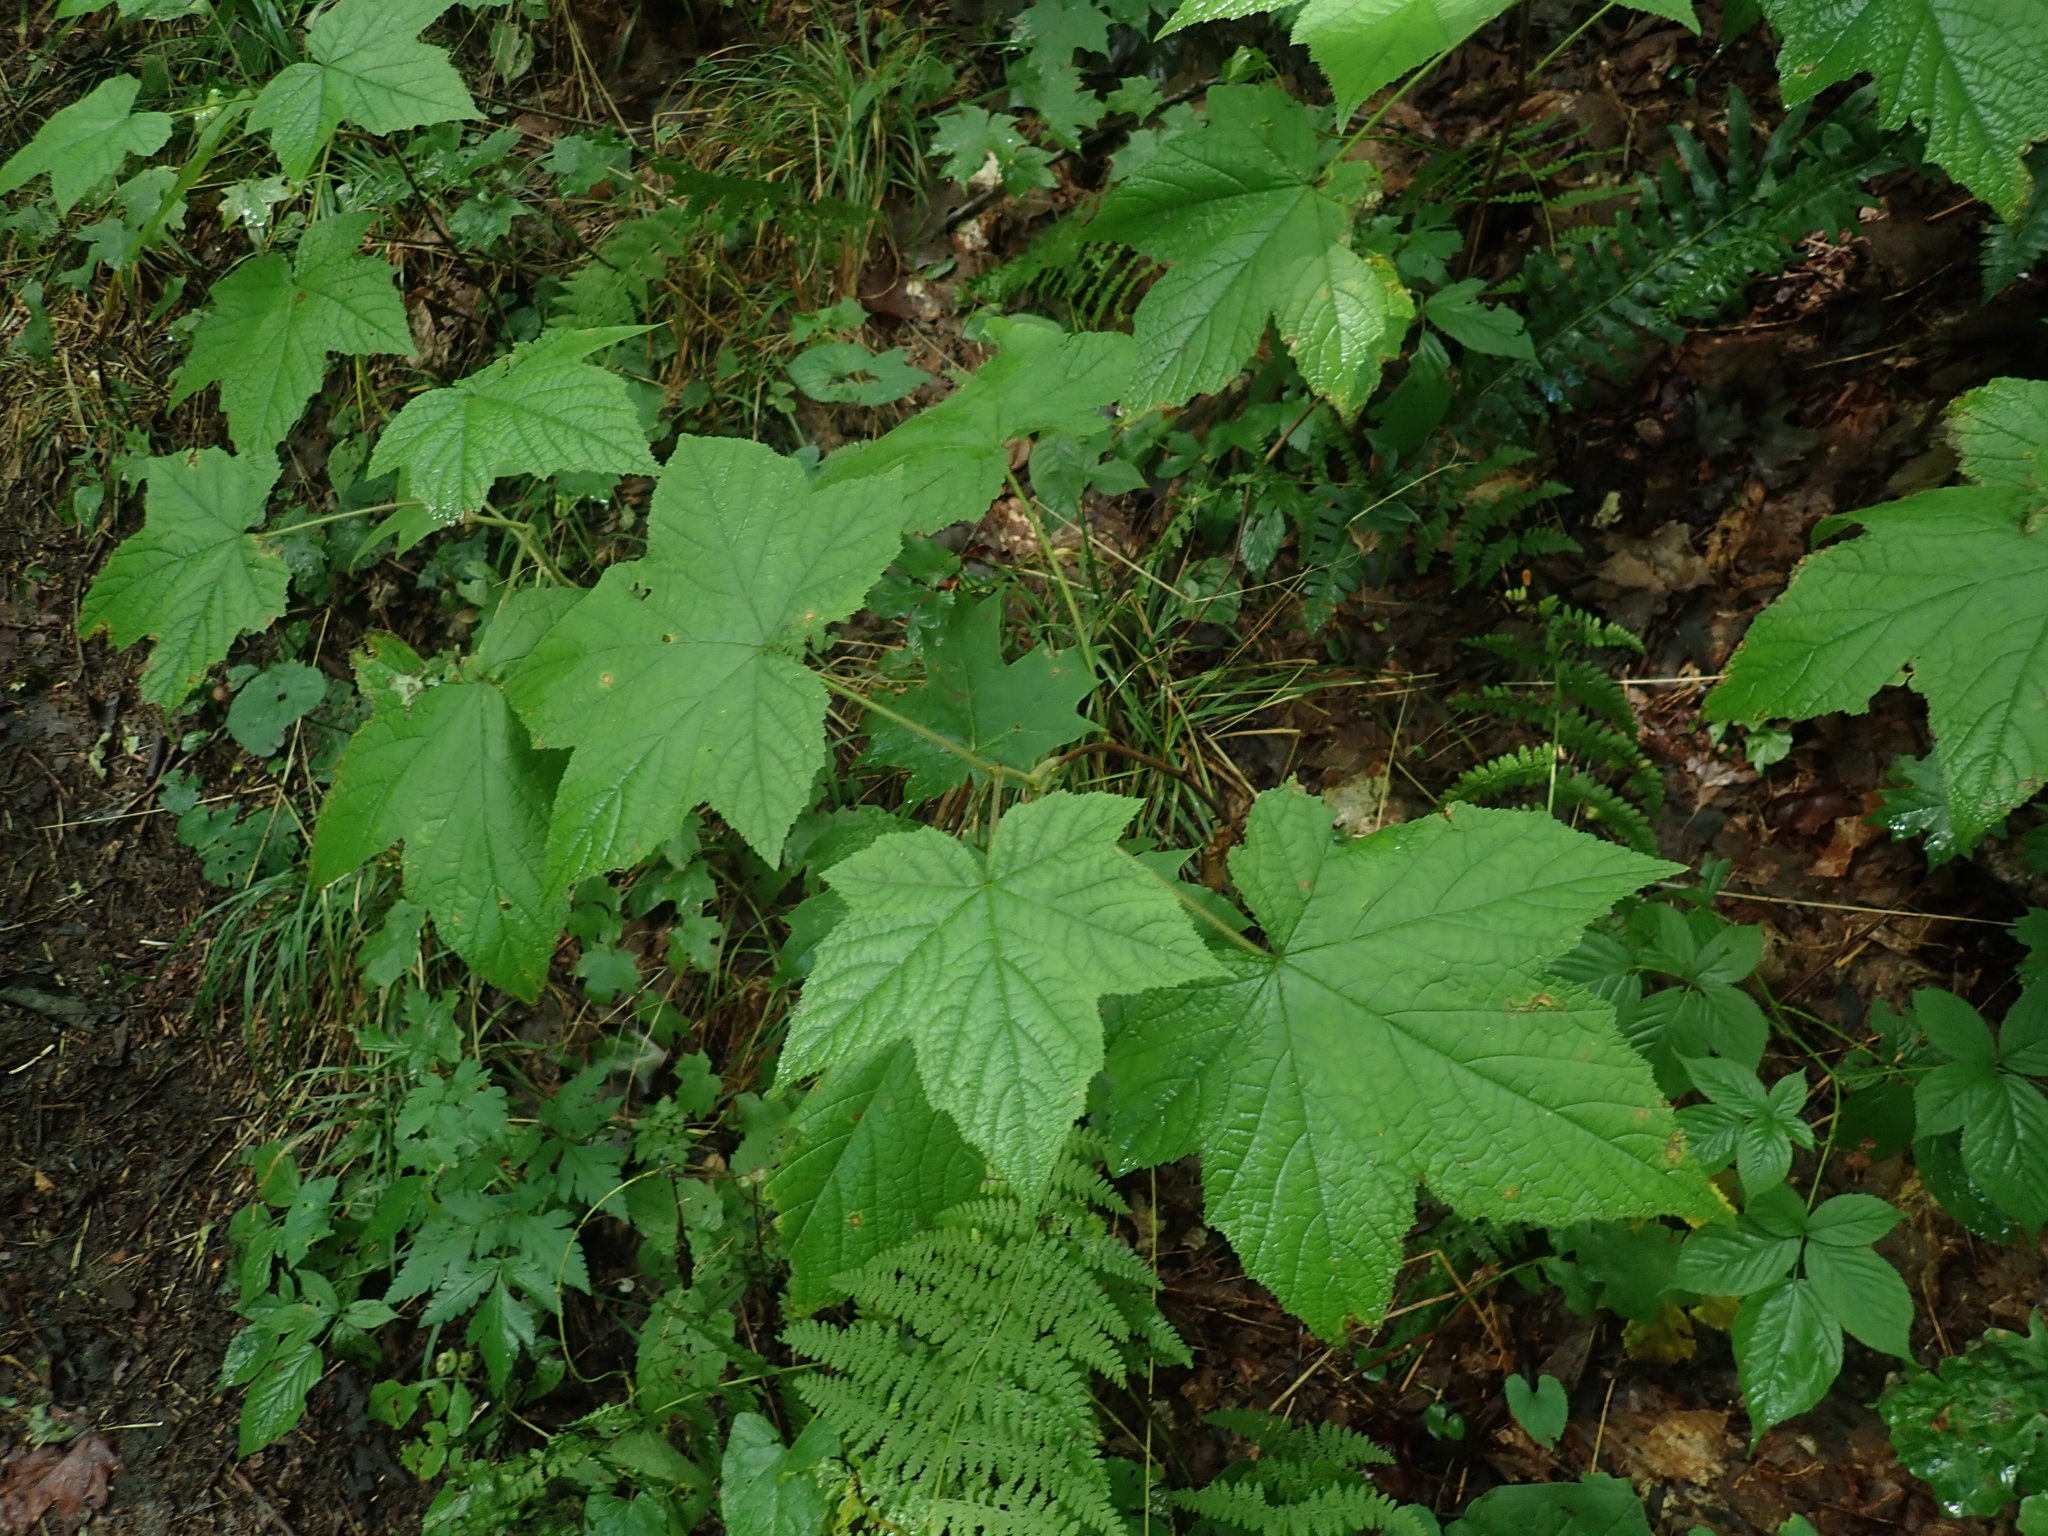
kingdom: Plantae
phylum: Tracheophyta
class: Magnoliopsida
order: Rosales
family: Rosaceae
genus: Rubus
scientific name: Rubus odoratus
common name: Purple-flowered raspberry
